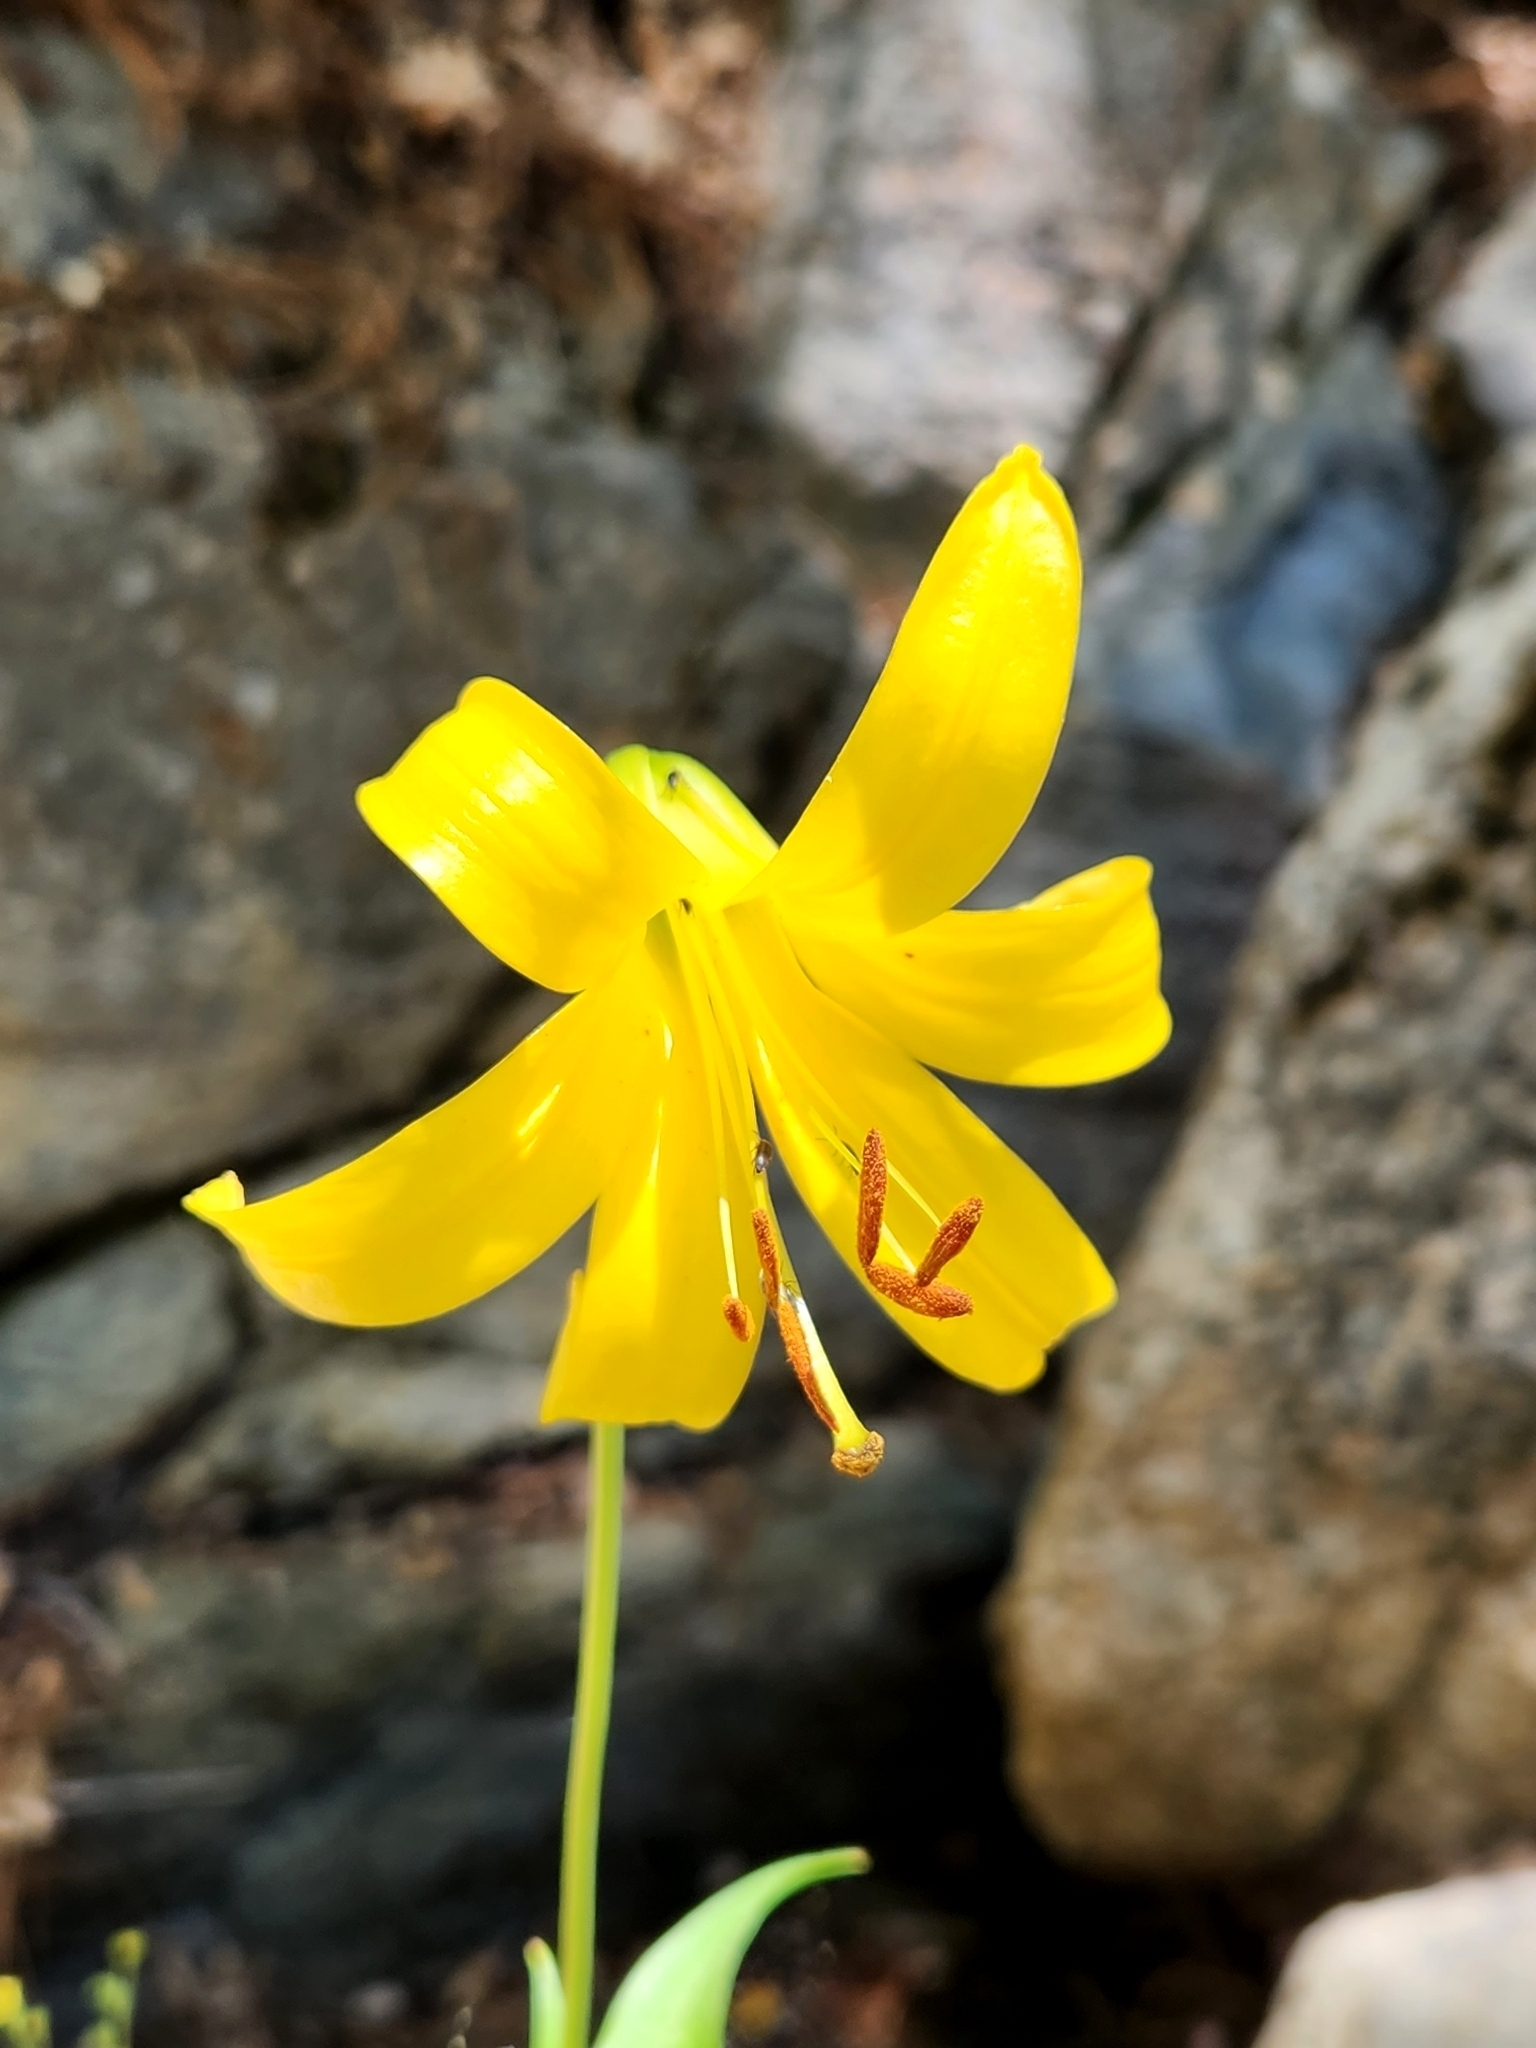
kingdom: Plantae
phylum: Tracheophyta
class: Liliopsida
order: Liliales
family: Liliaceae
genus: Lilium
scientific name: Lilium parryi
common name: Lemon lily
